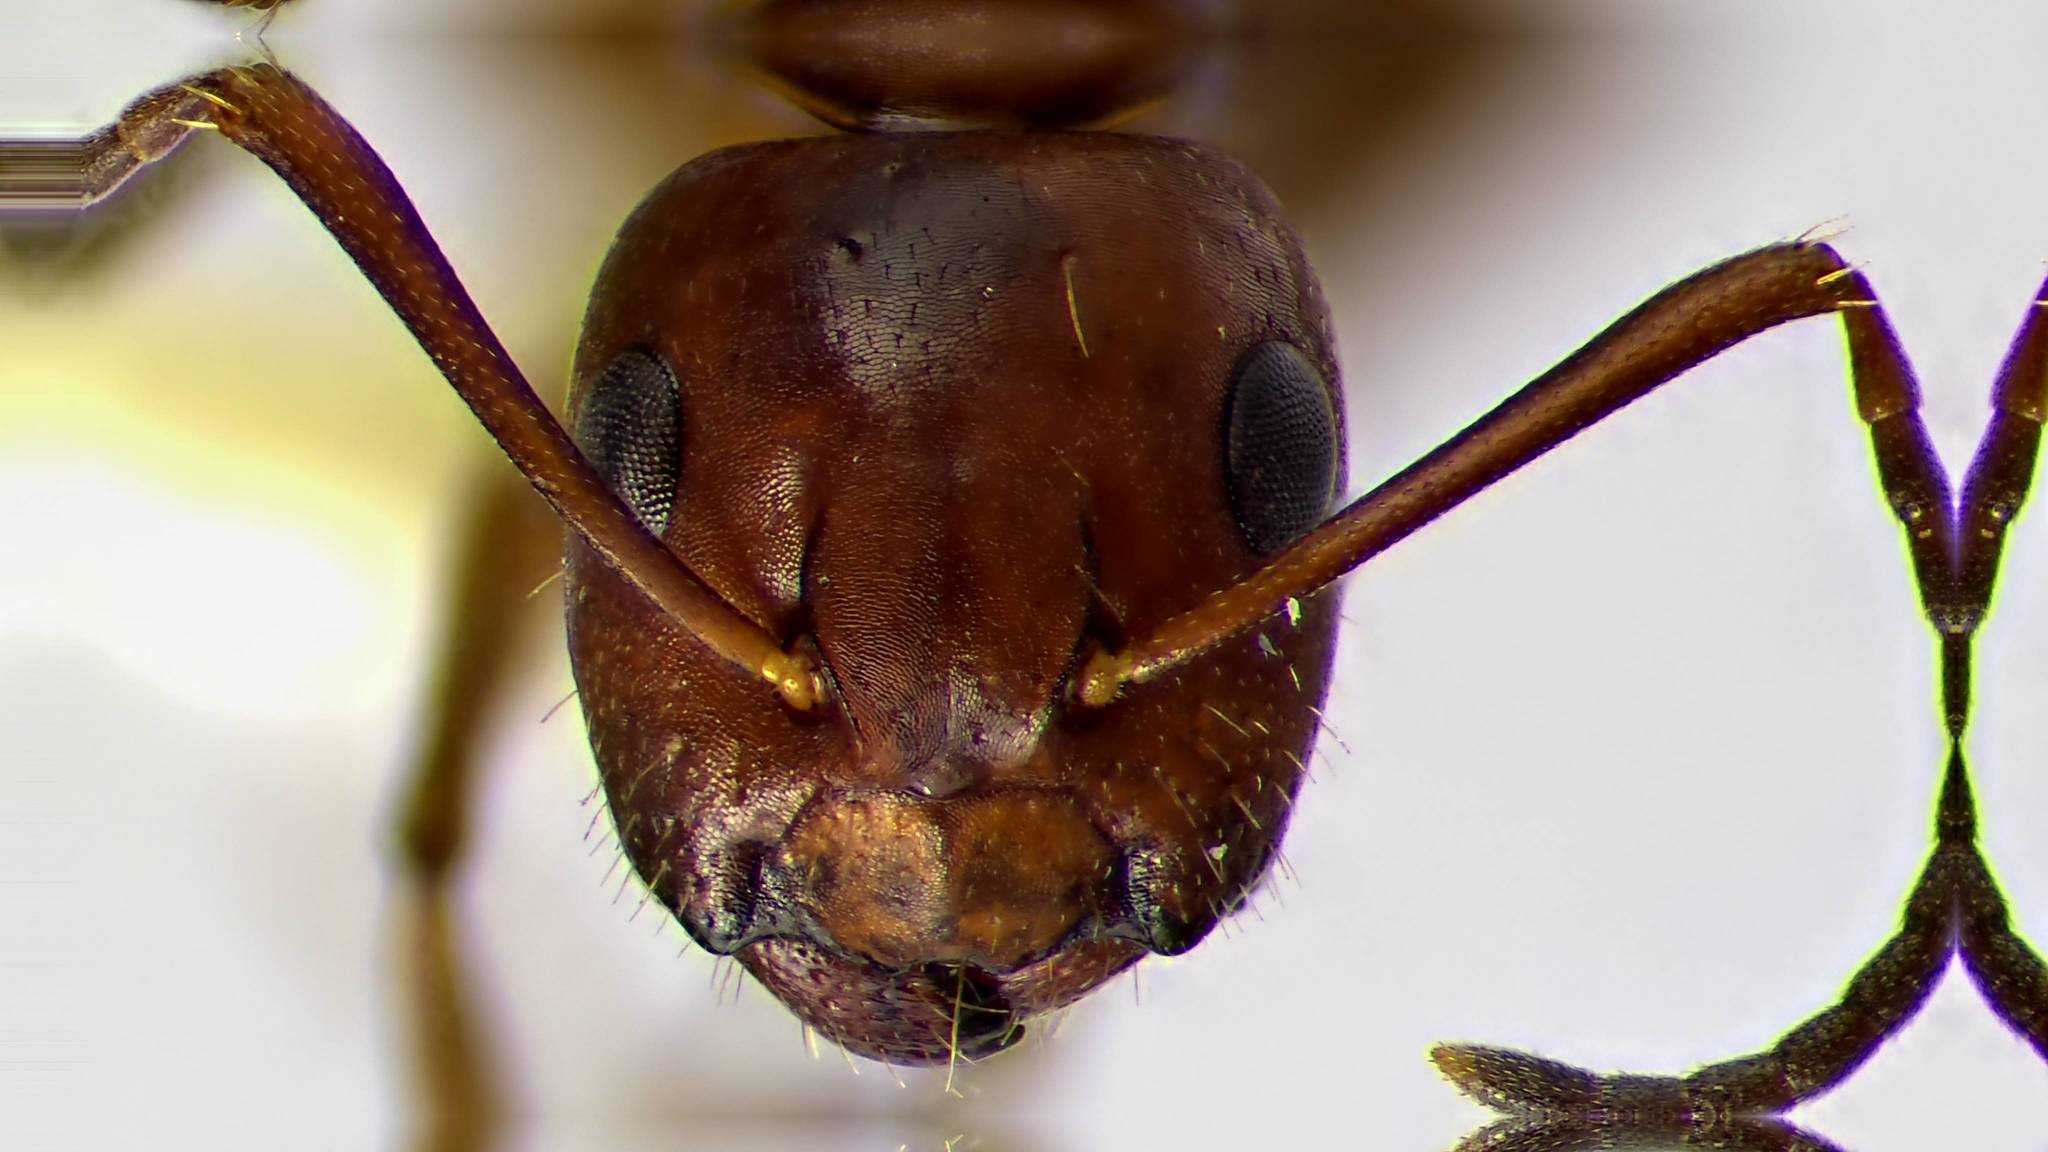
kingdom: Animalia
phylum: Arthropoda
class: Insecta
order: Hymenoptera
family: Formicidae
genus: Camponotus
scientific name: Camponotus discolor
